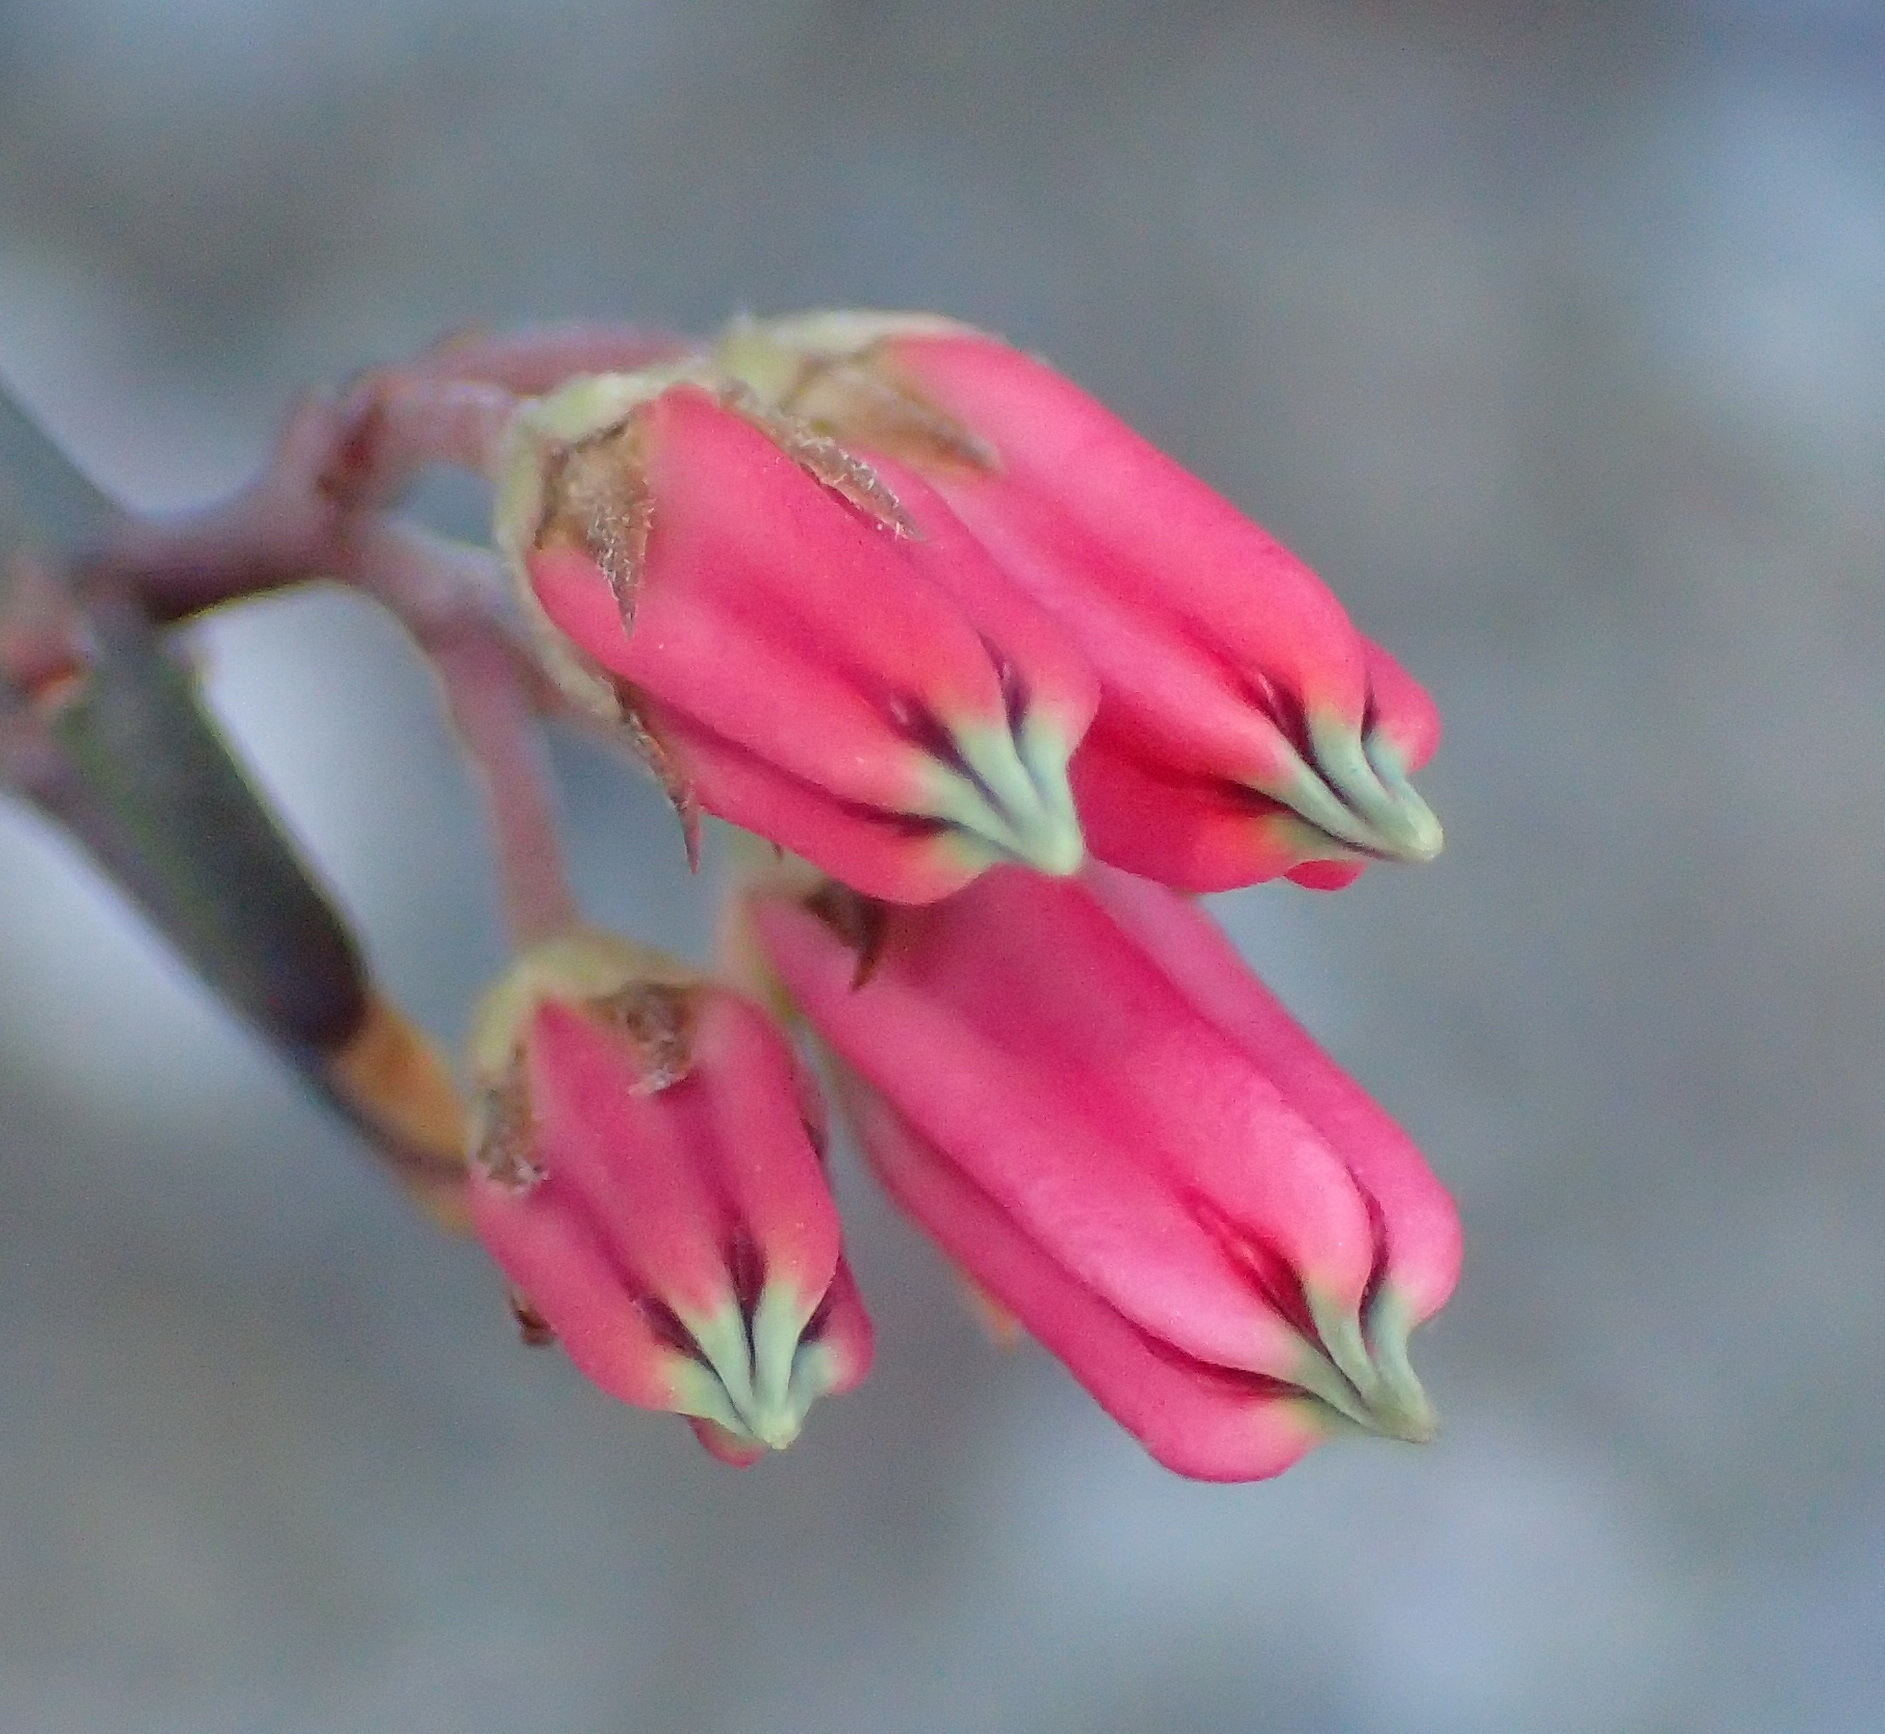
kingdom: Plantae
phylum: Tracheophyta
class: Magnoliopsida
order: Gentianales
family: Apocynaceae
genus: Microloma
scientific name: Microloma sagittatum
